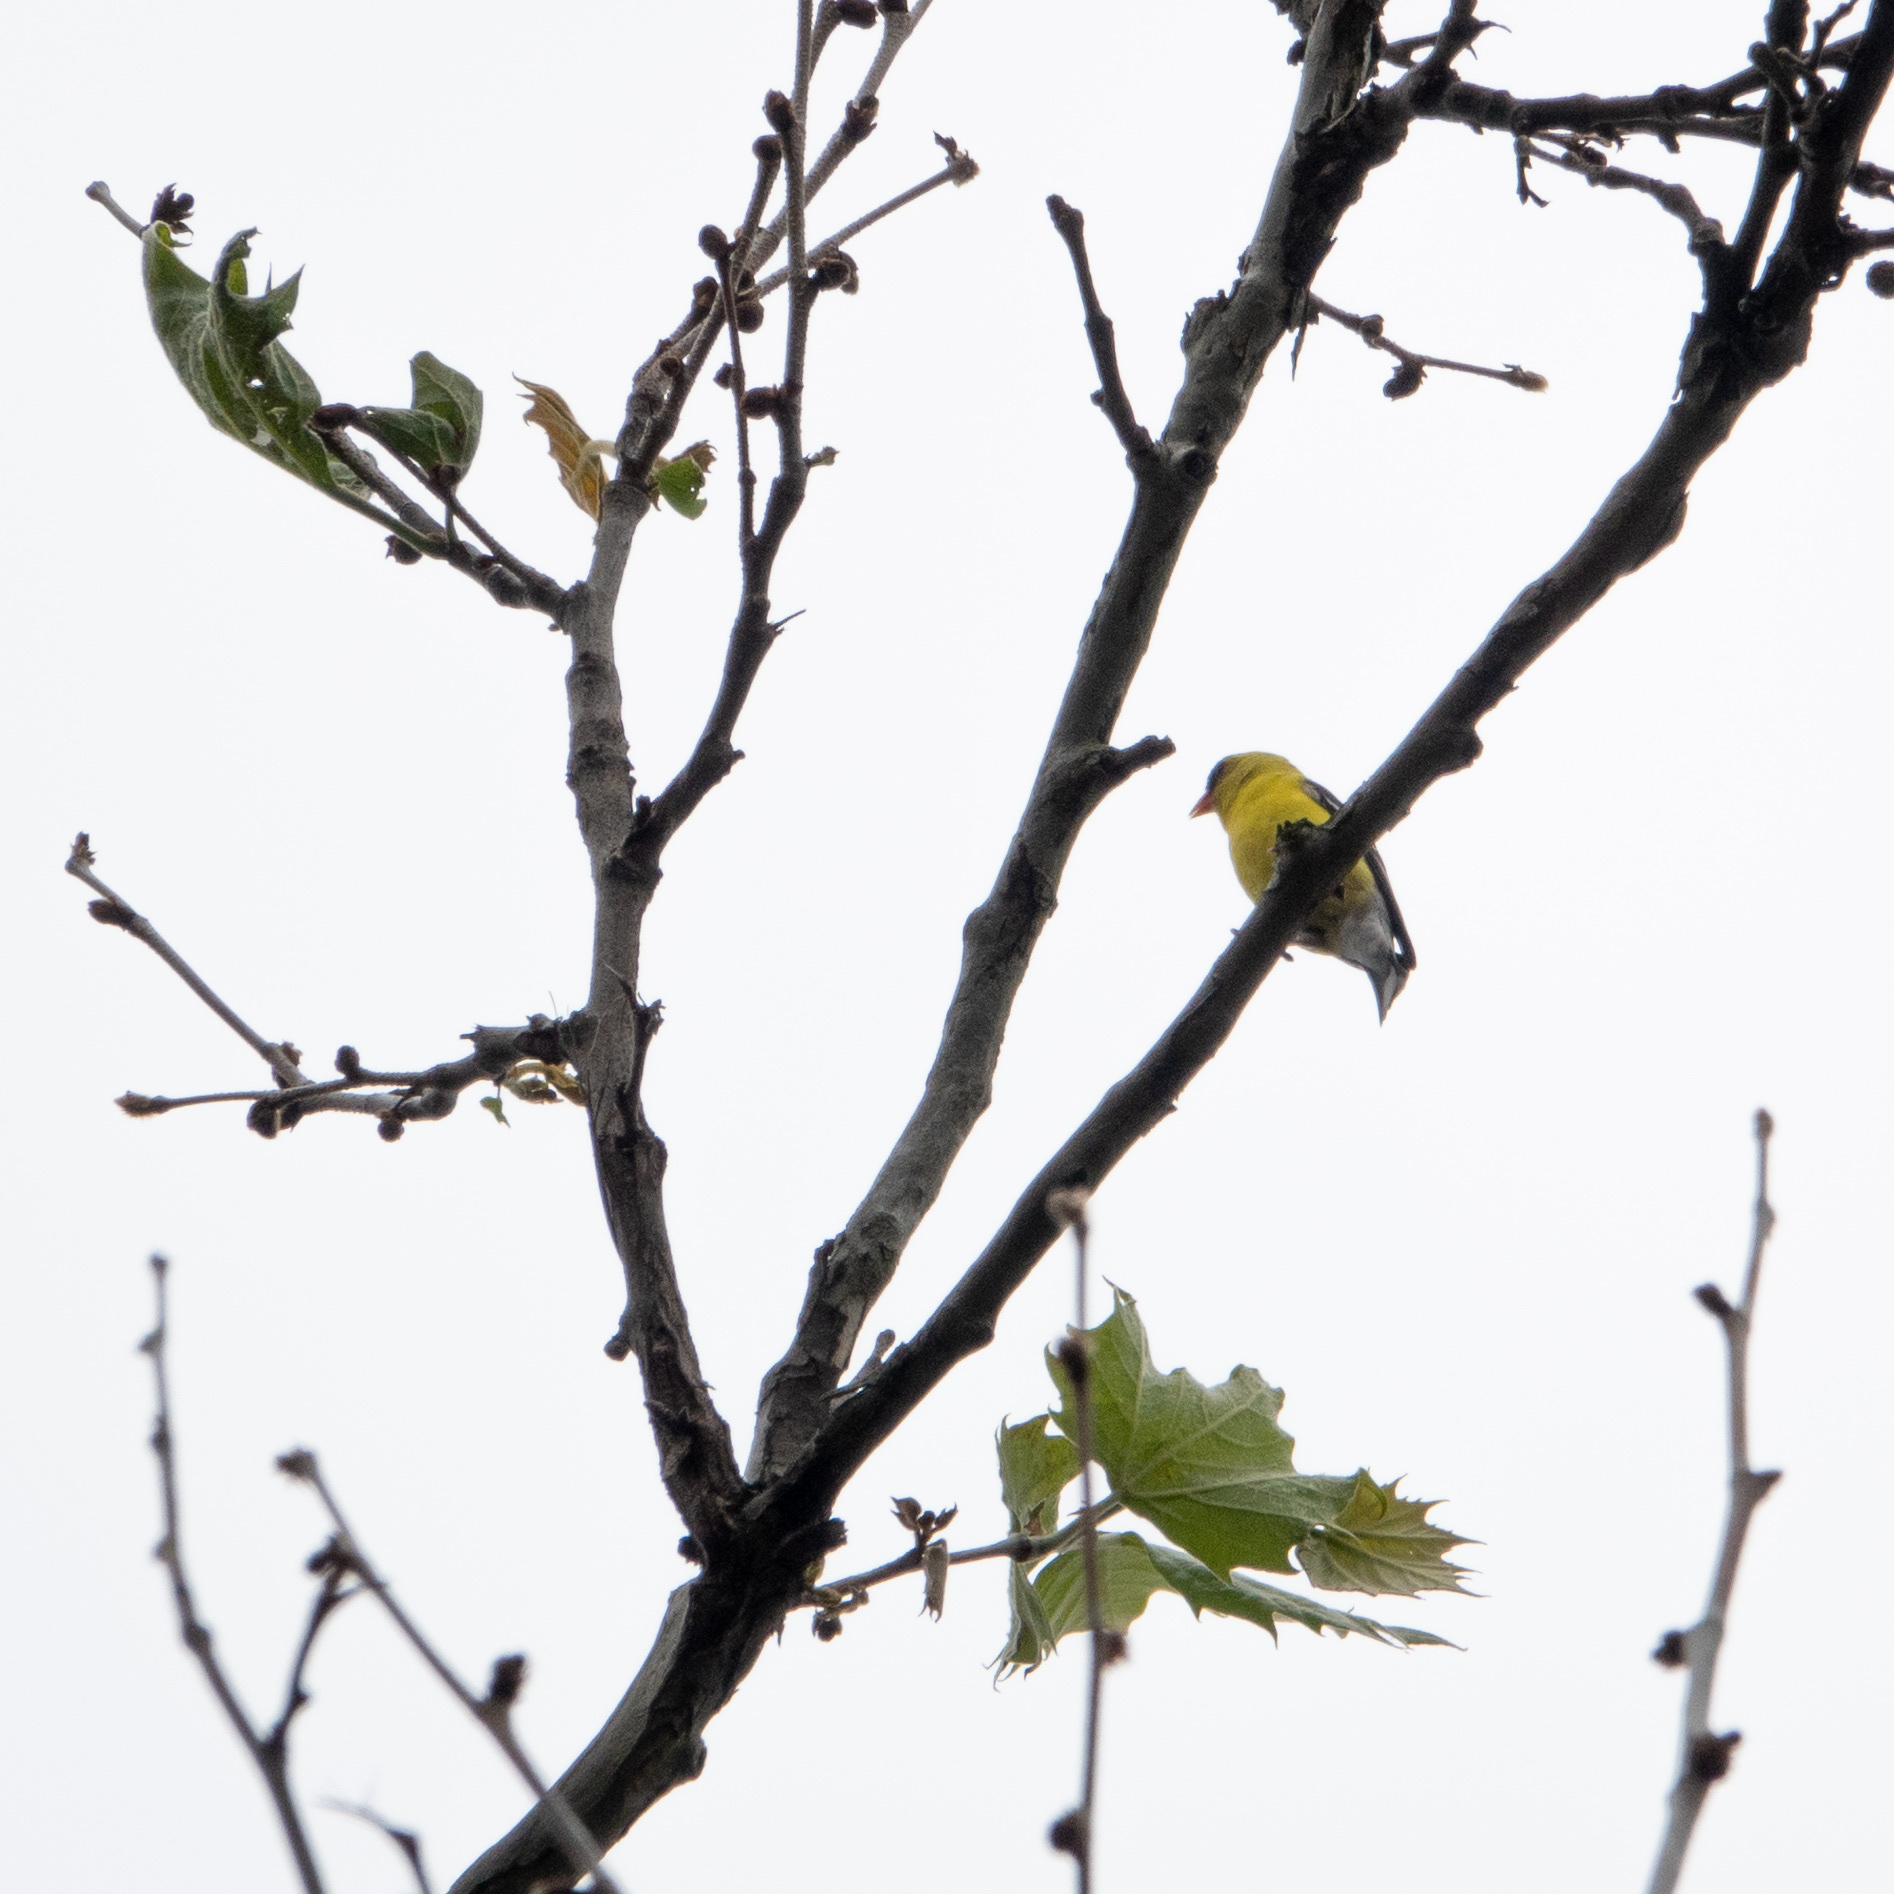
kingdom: Animalia
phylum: Chordata
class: Aves
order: Passeriformes
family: Fringillidae
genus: Spinus
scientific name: Spinus tristis
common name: American goldfinch
